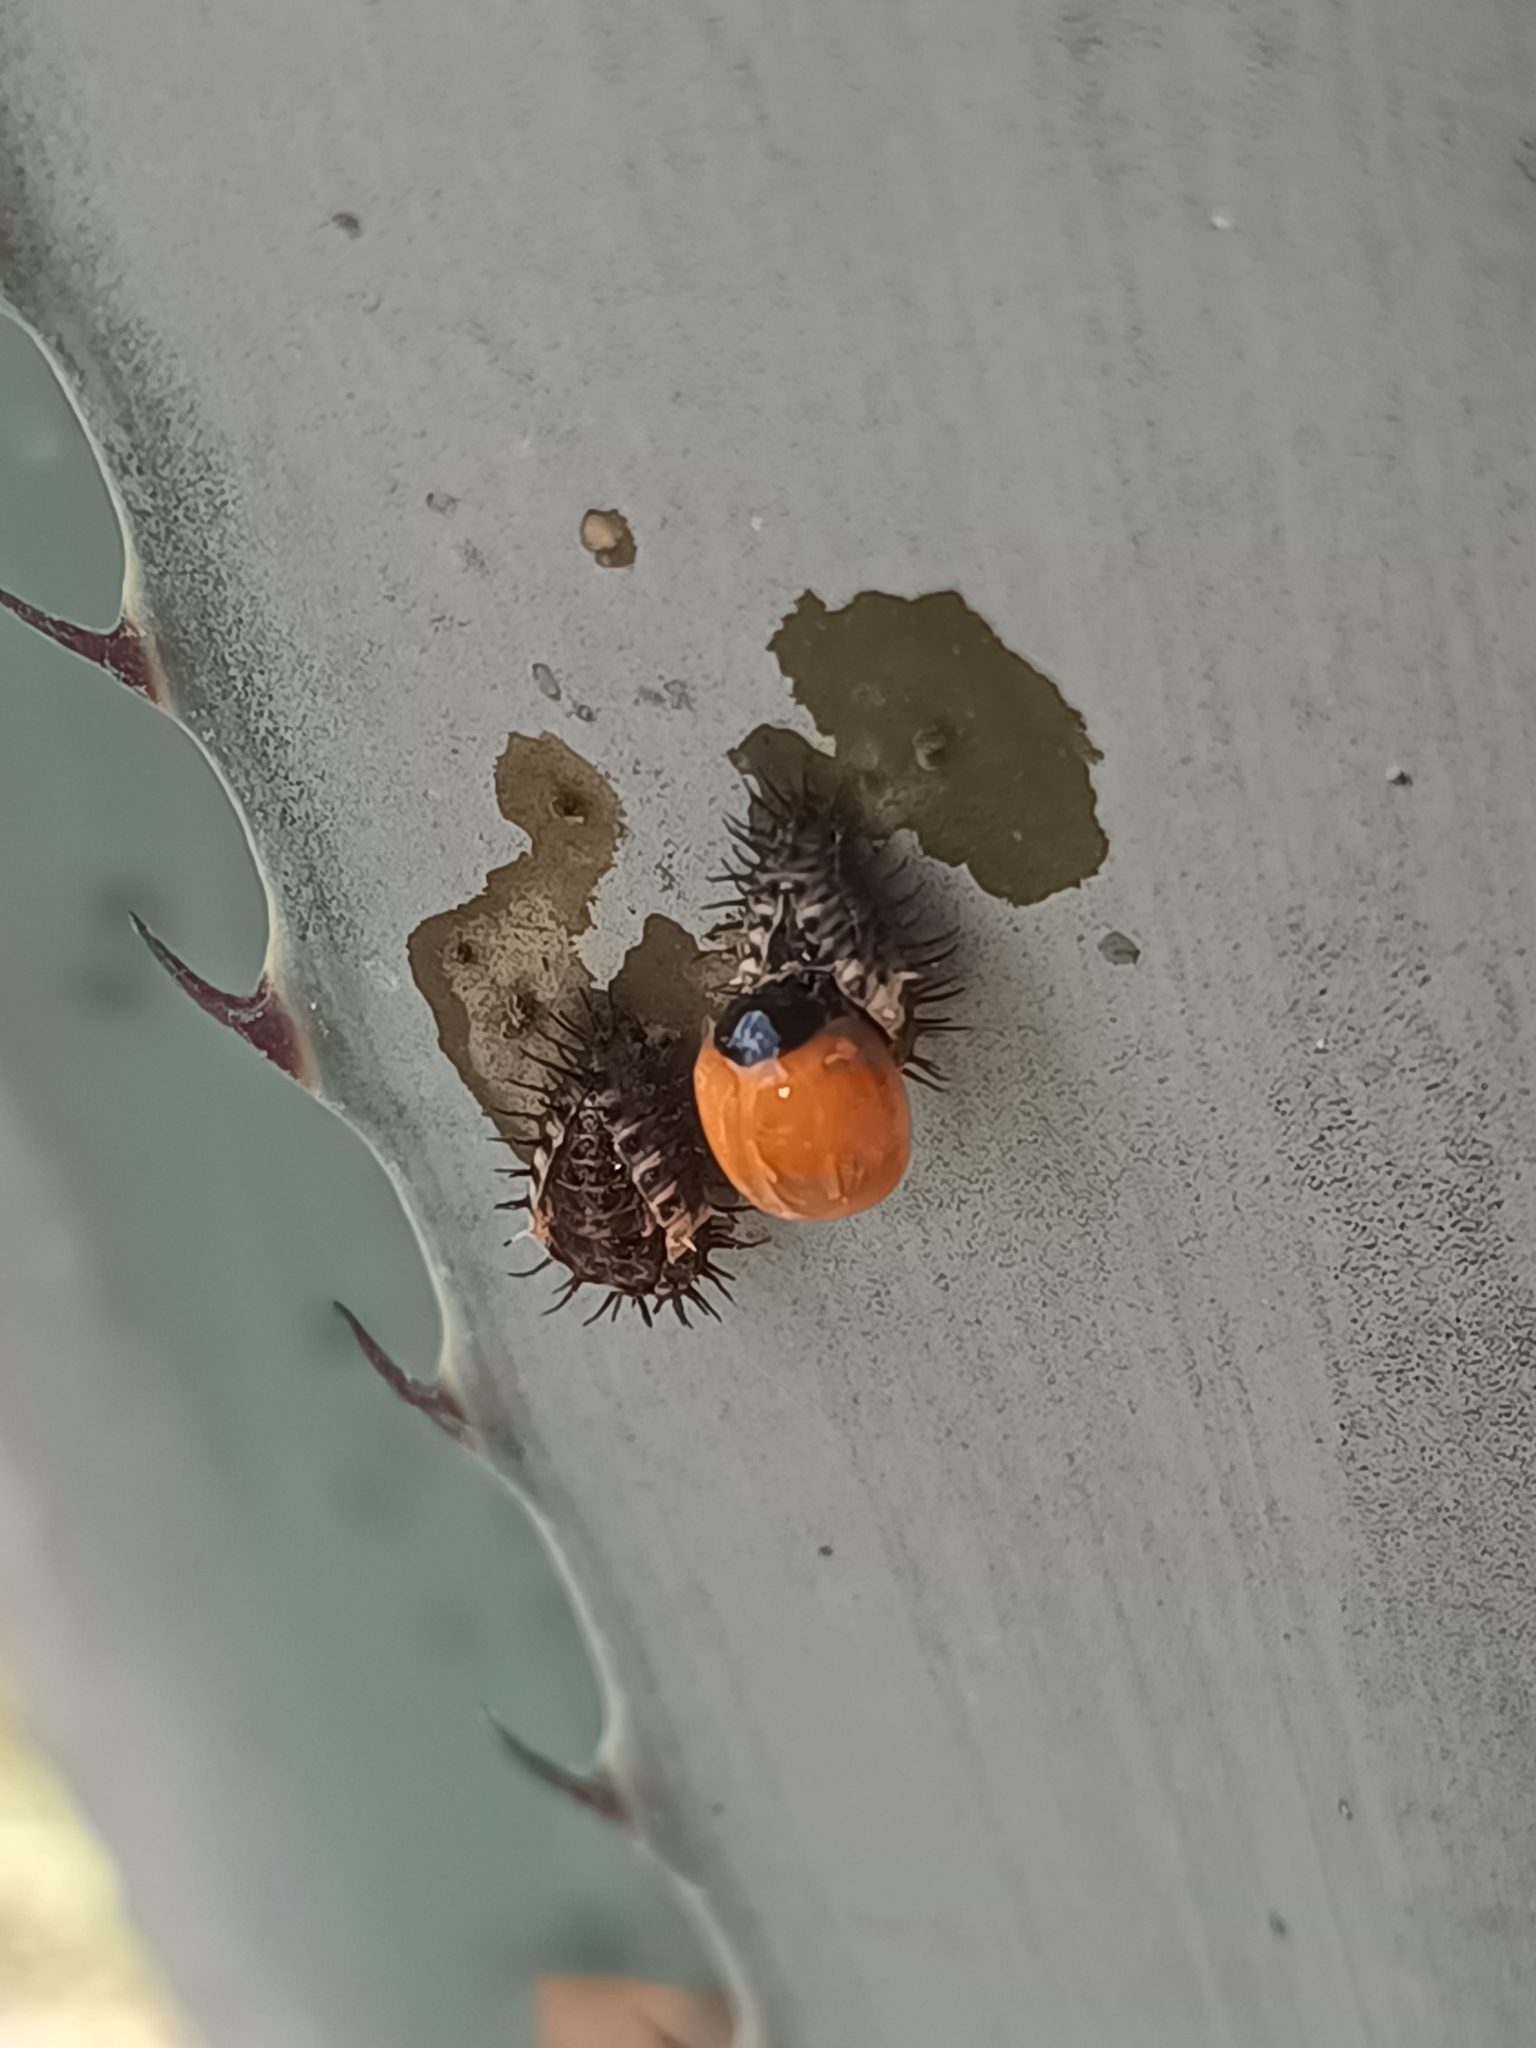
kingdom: Animalia
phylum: Arthropoda
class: Insecta
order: Coleoptera
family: Coccinellidae
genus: Chilocorus
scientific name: Chilocorus cacti
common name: Cactus lady beetle
